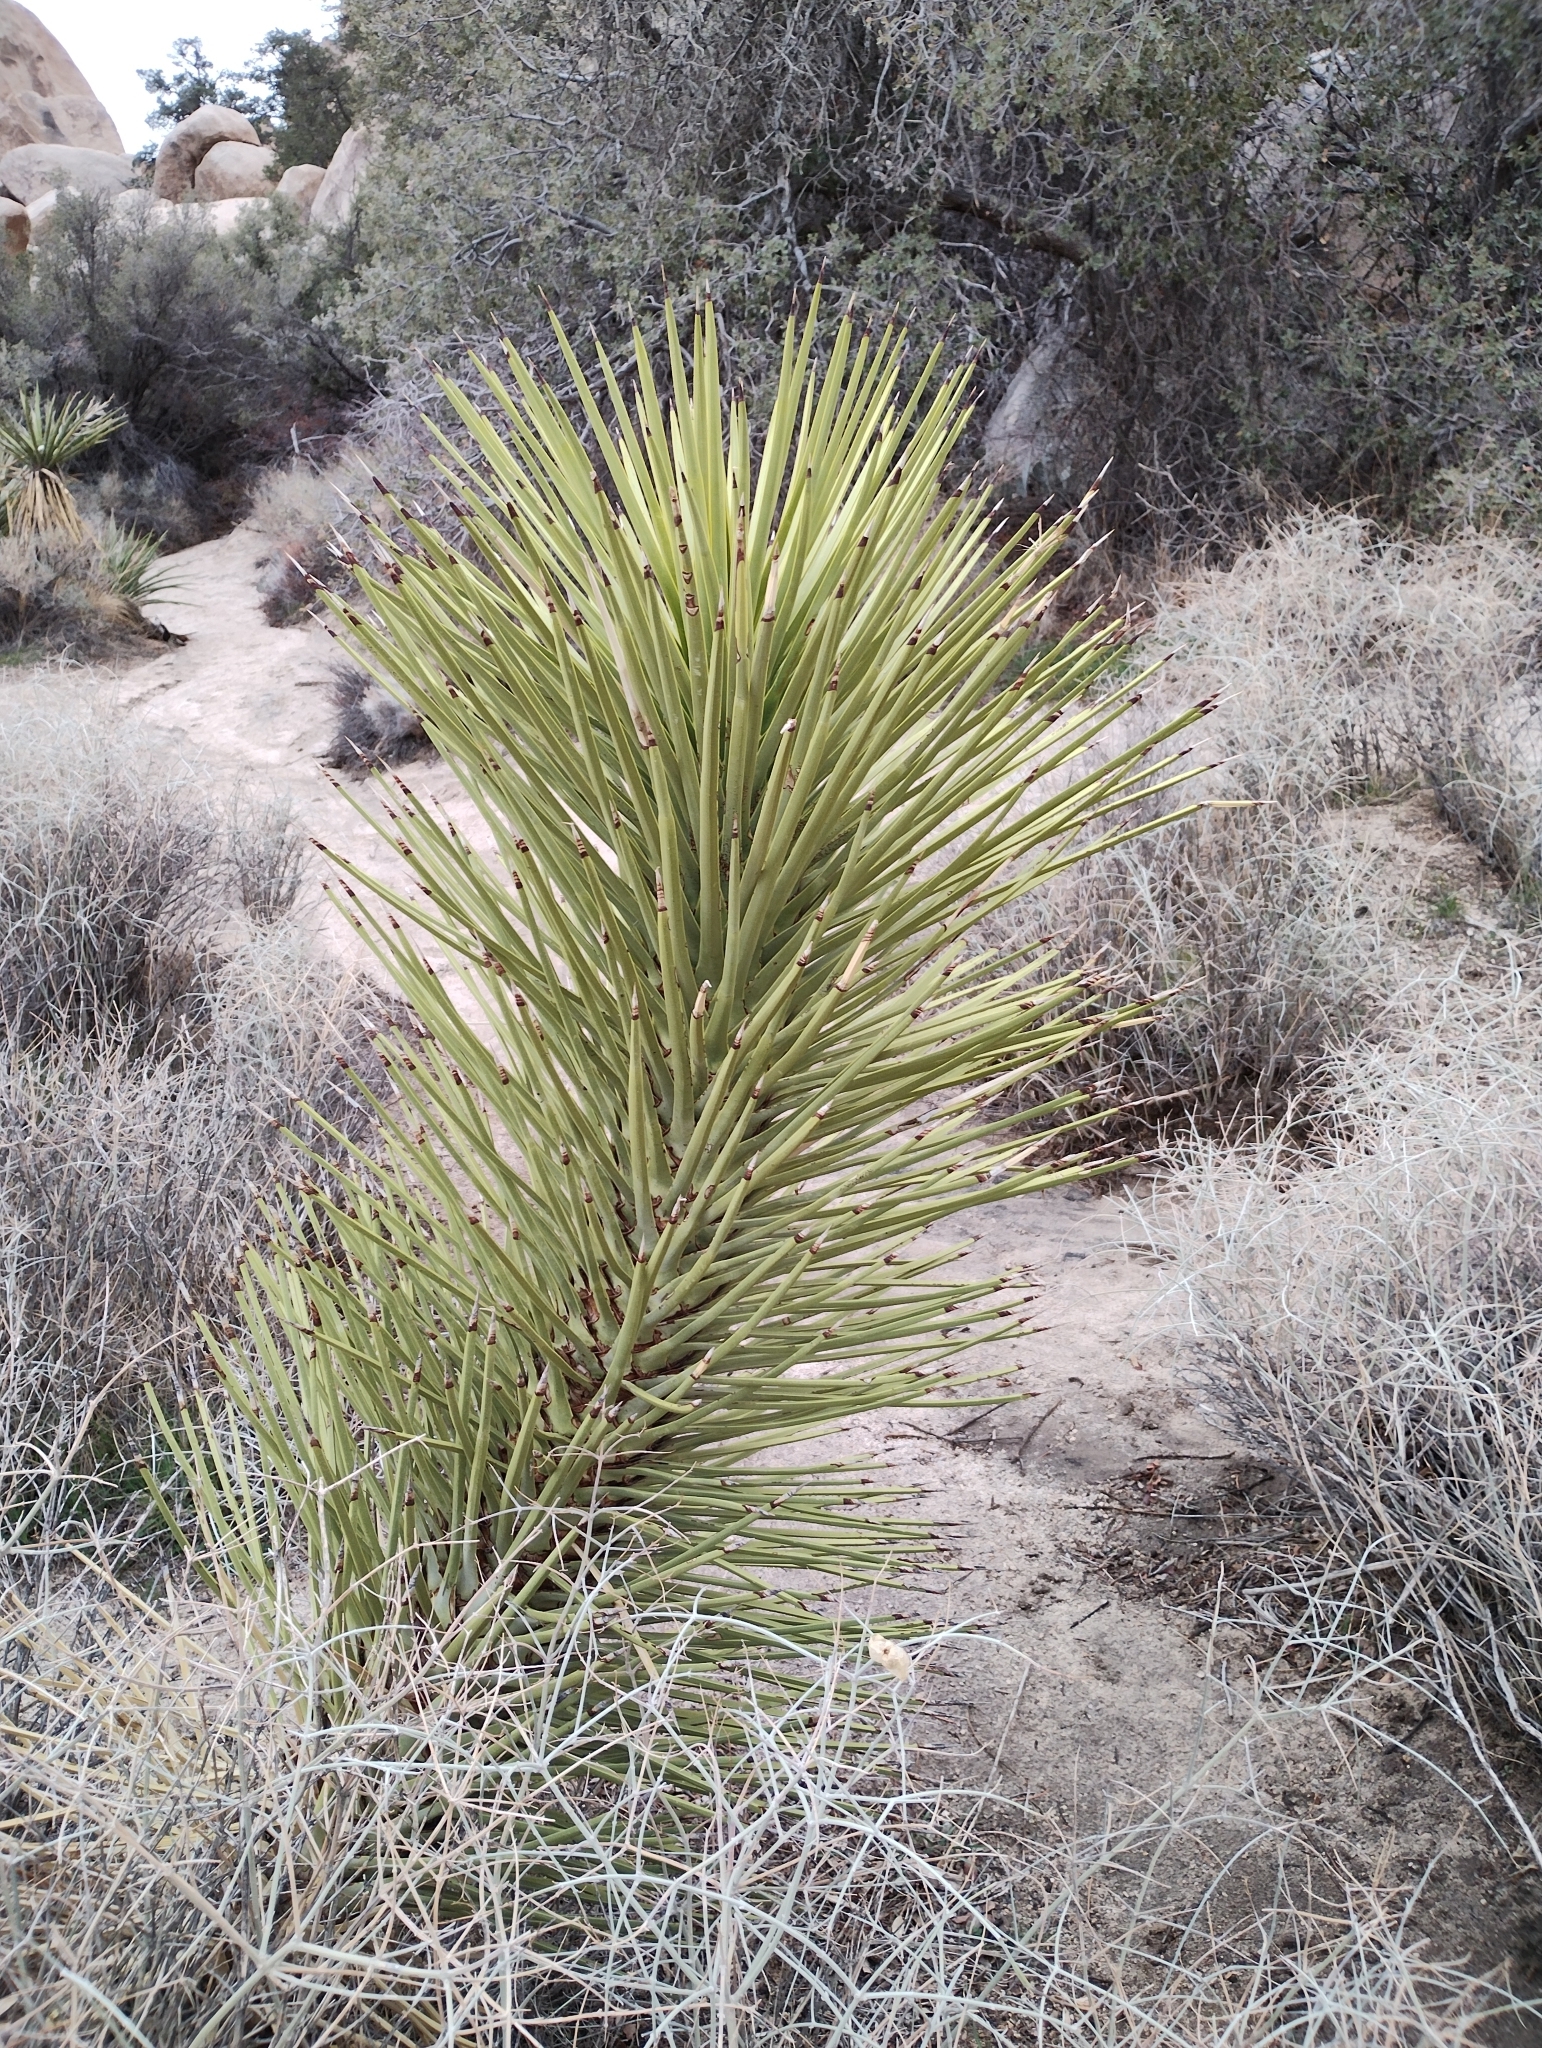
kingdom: Plantae
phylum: Tracheophyta
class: Liliopsida
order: Asparagales
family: Asparagaceae
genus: Yucca
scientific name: Yucca brevifolia
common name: Joshua tree
